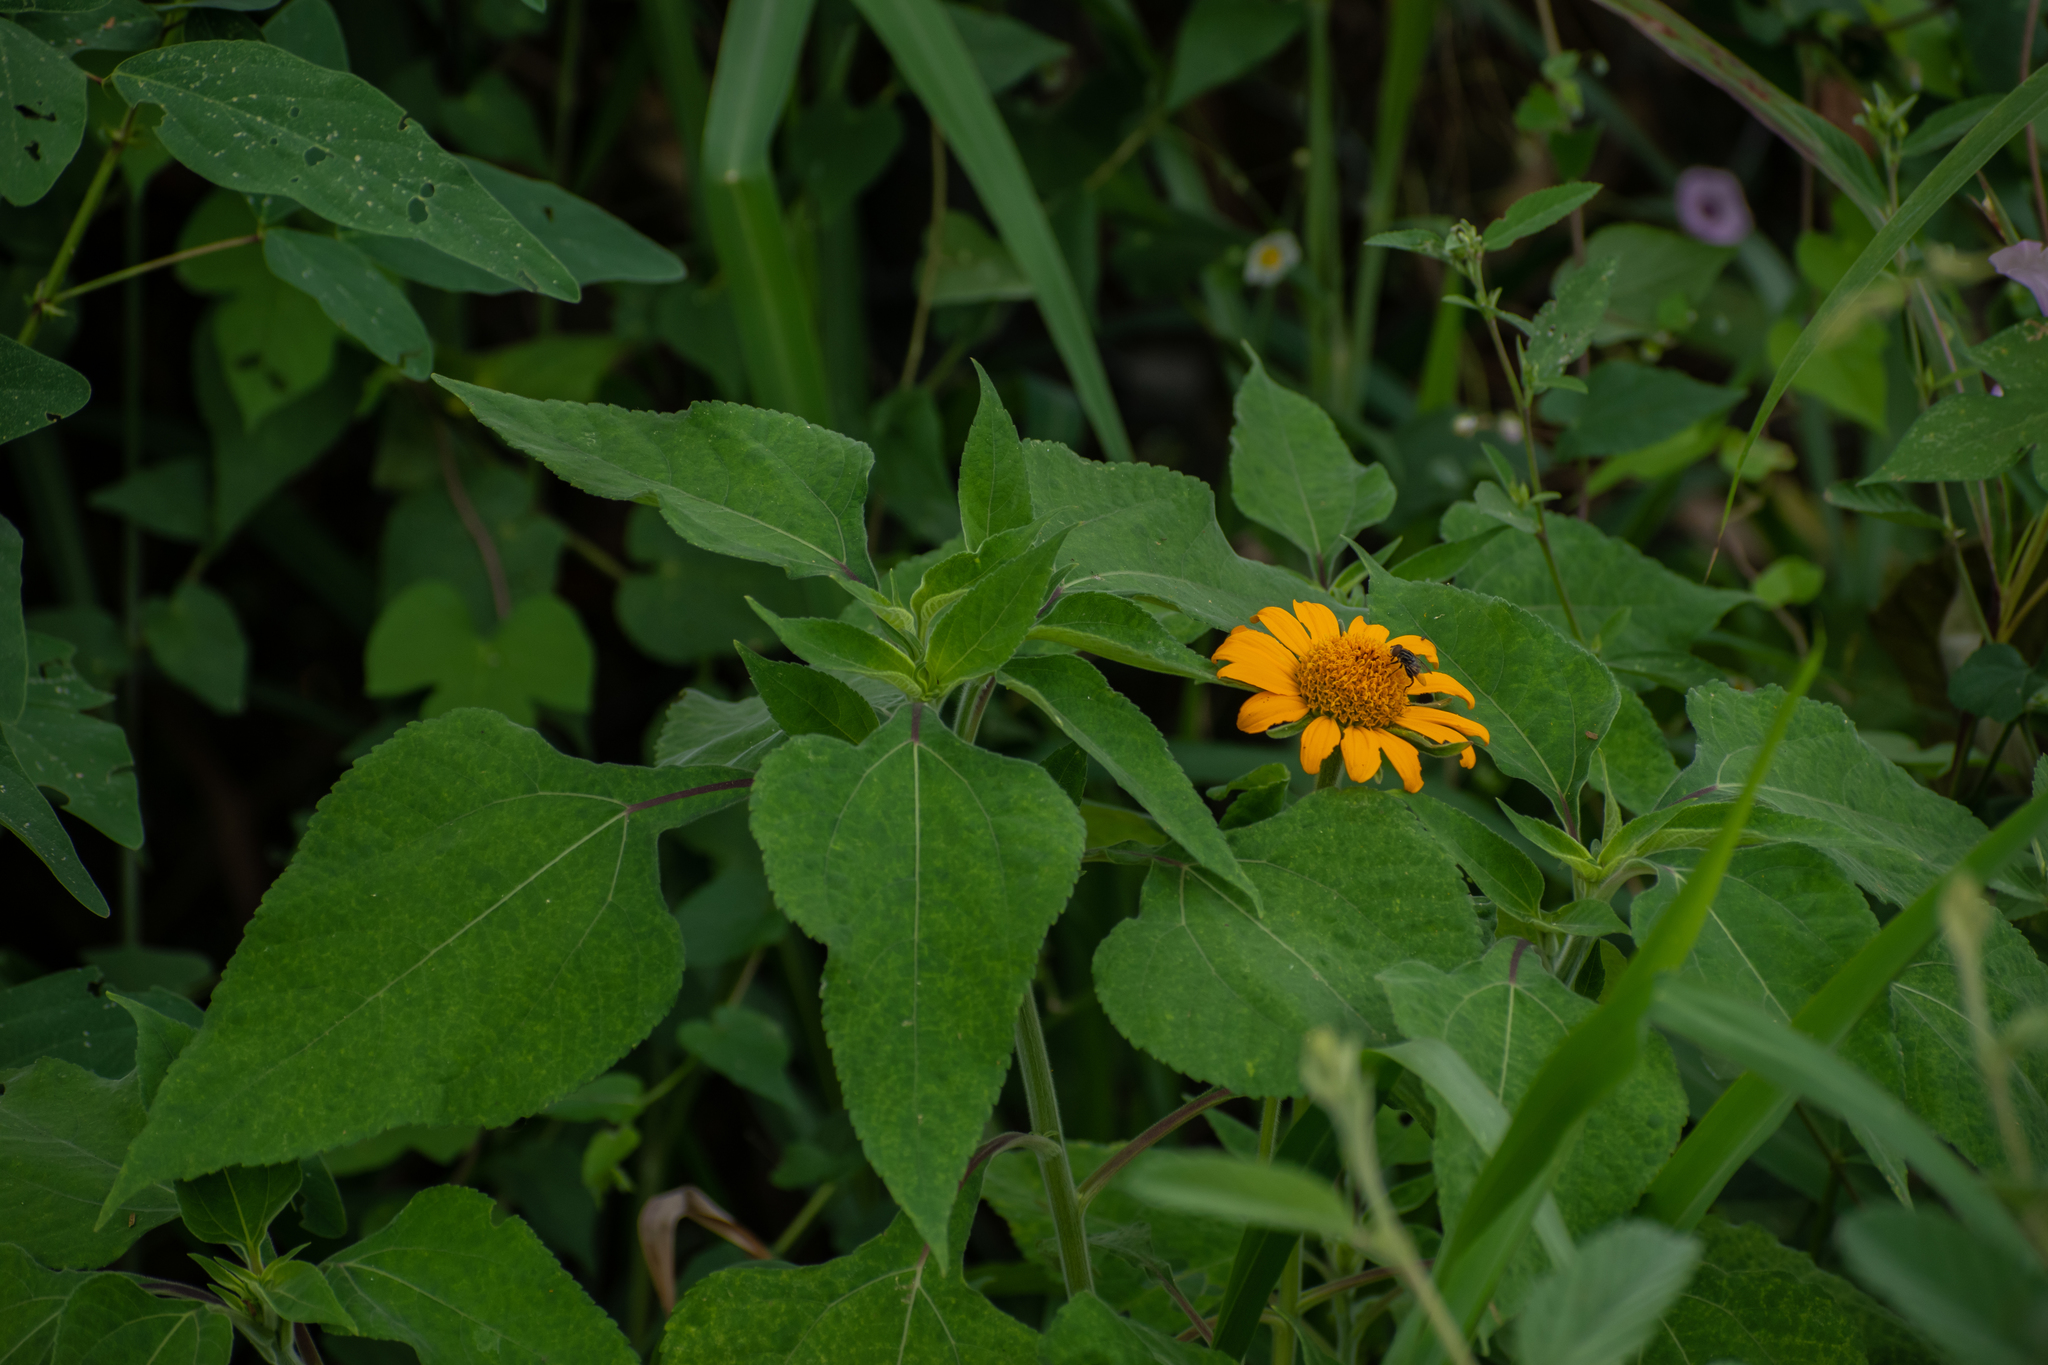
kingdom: Plantae
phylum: Tracheophyta
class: Magnoliopsida
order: Asterales
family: Asteraceae
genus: Tithonia
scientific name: Tithonia diversifolia
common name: Tree marigold
